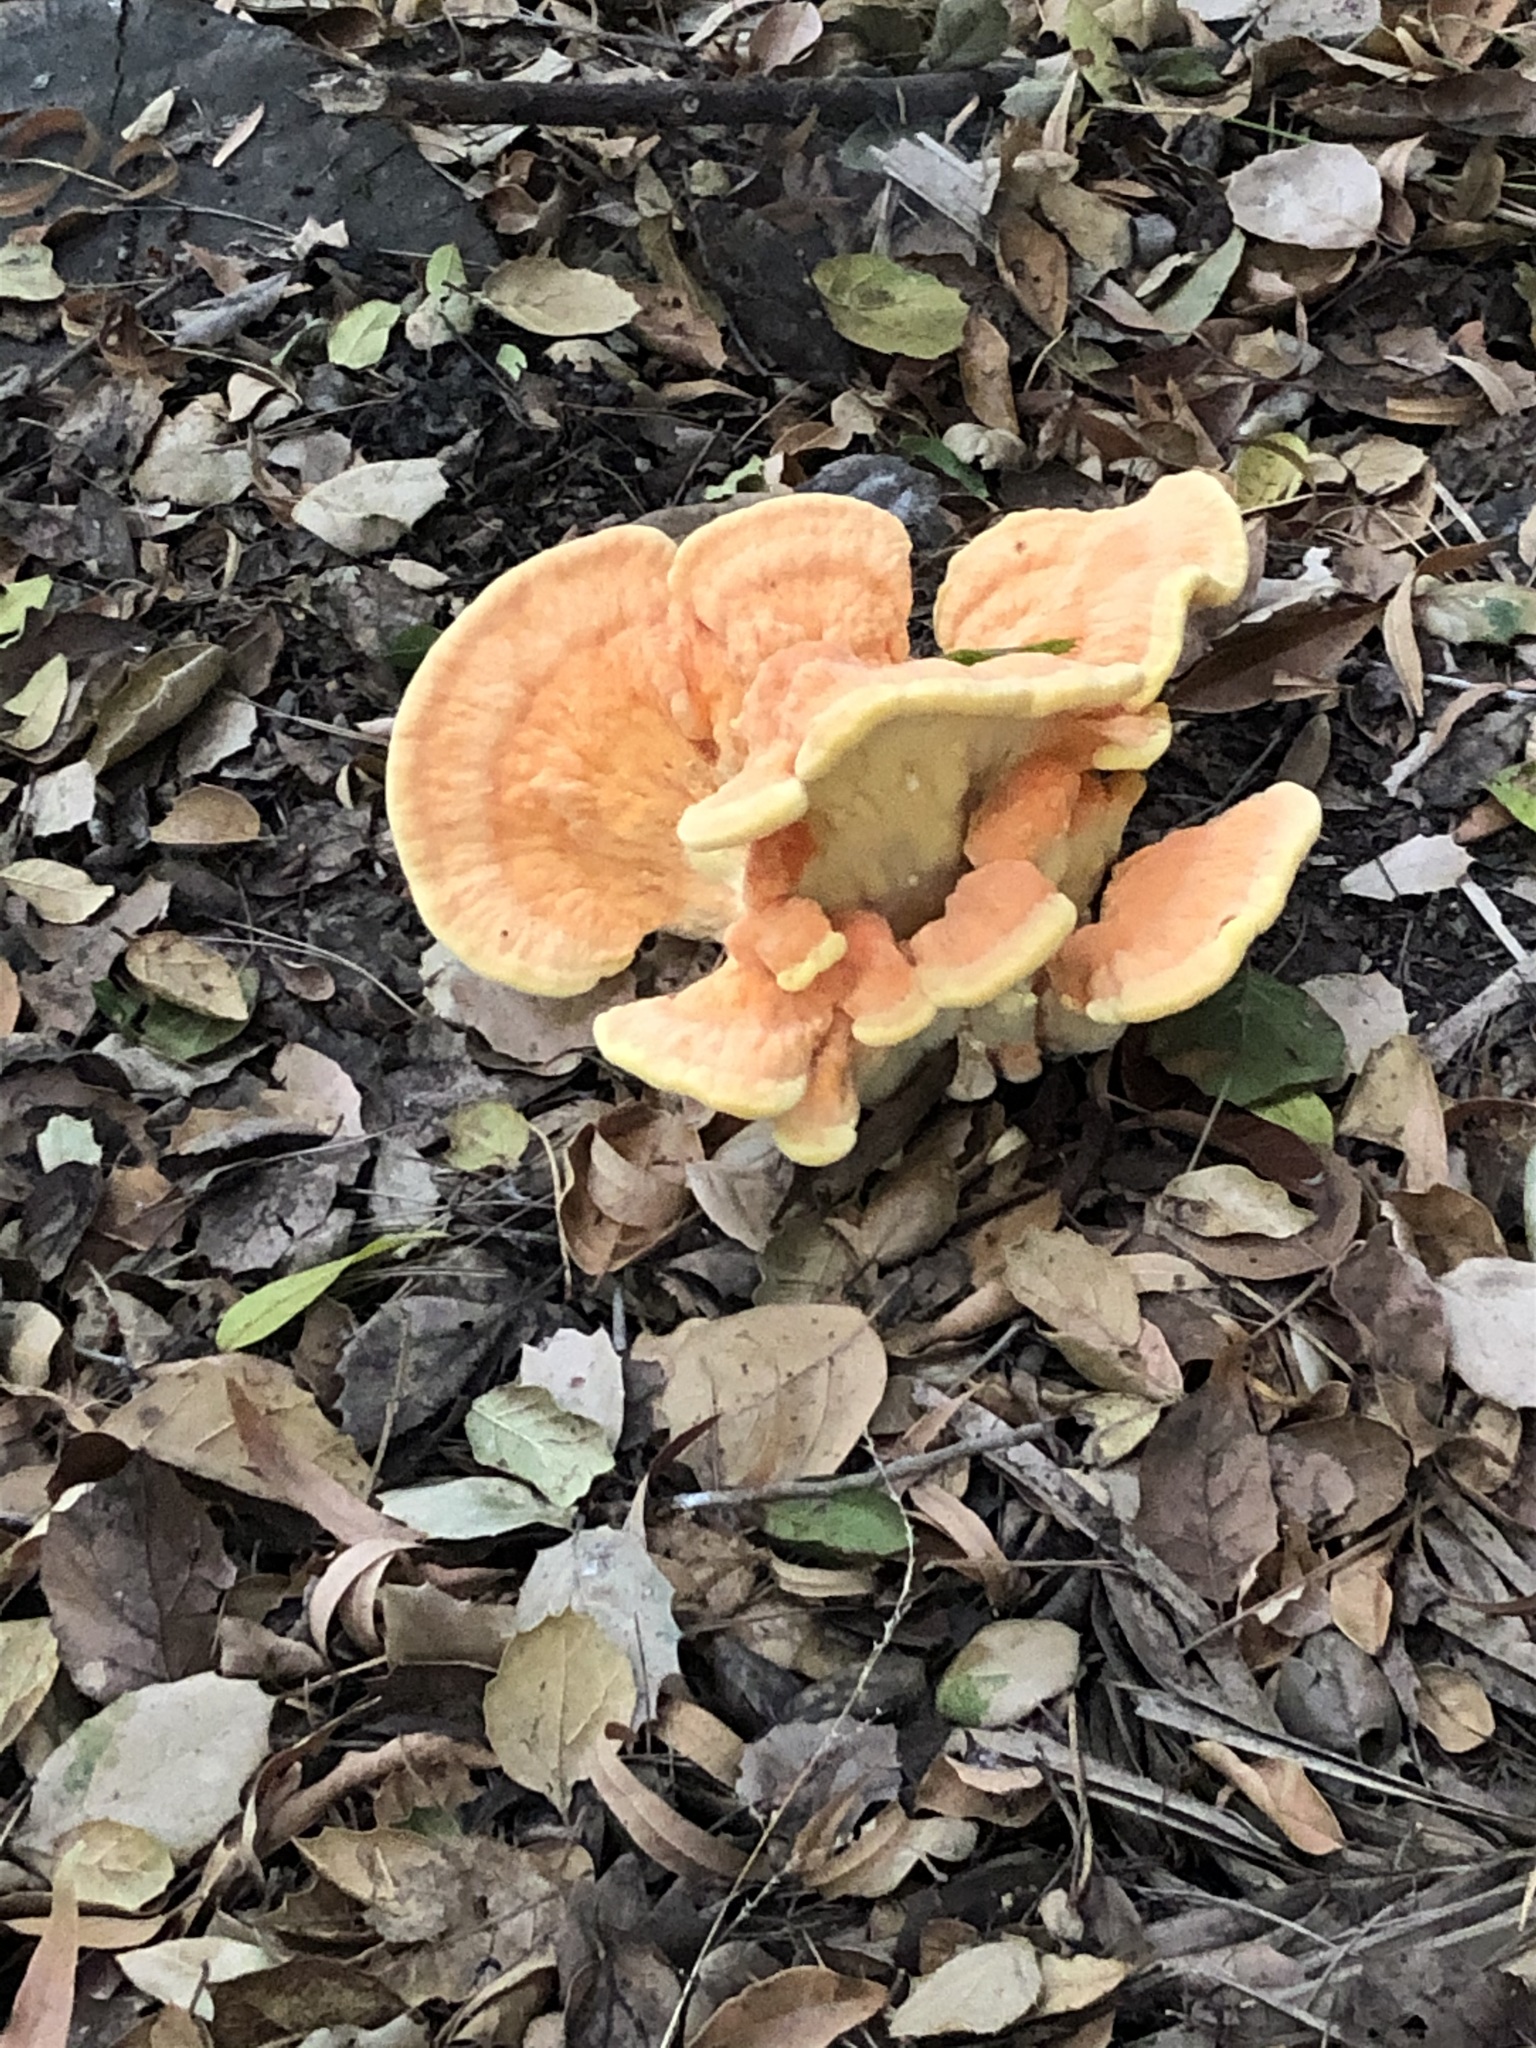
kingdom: Fungi
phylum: Basidiomycota
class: Agaricomycetes
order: Polyporales
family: Laetiporaceae
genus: Laetiporus
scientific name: Laetiporus gilbertsonii
